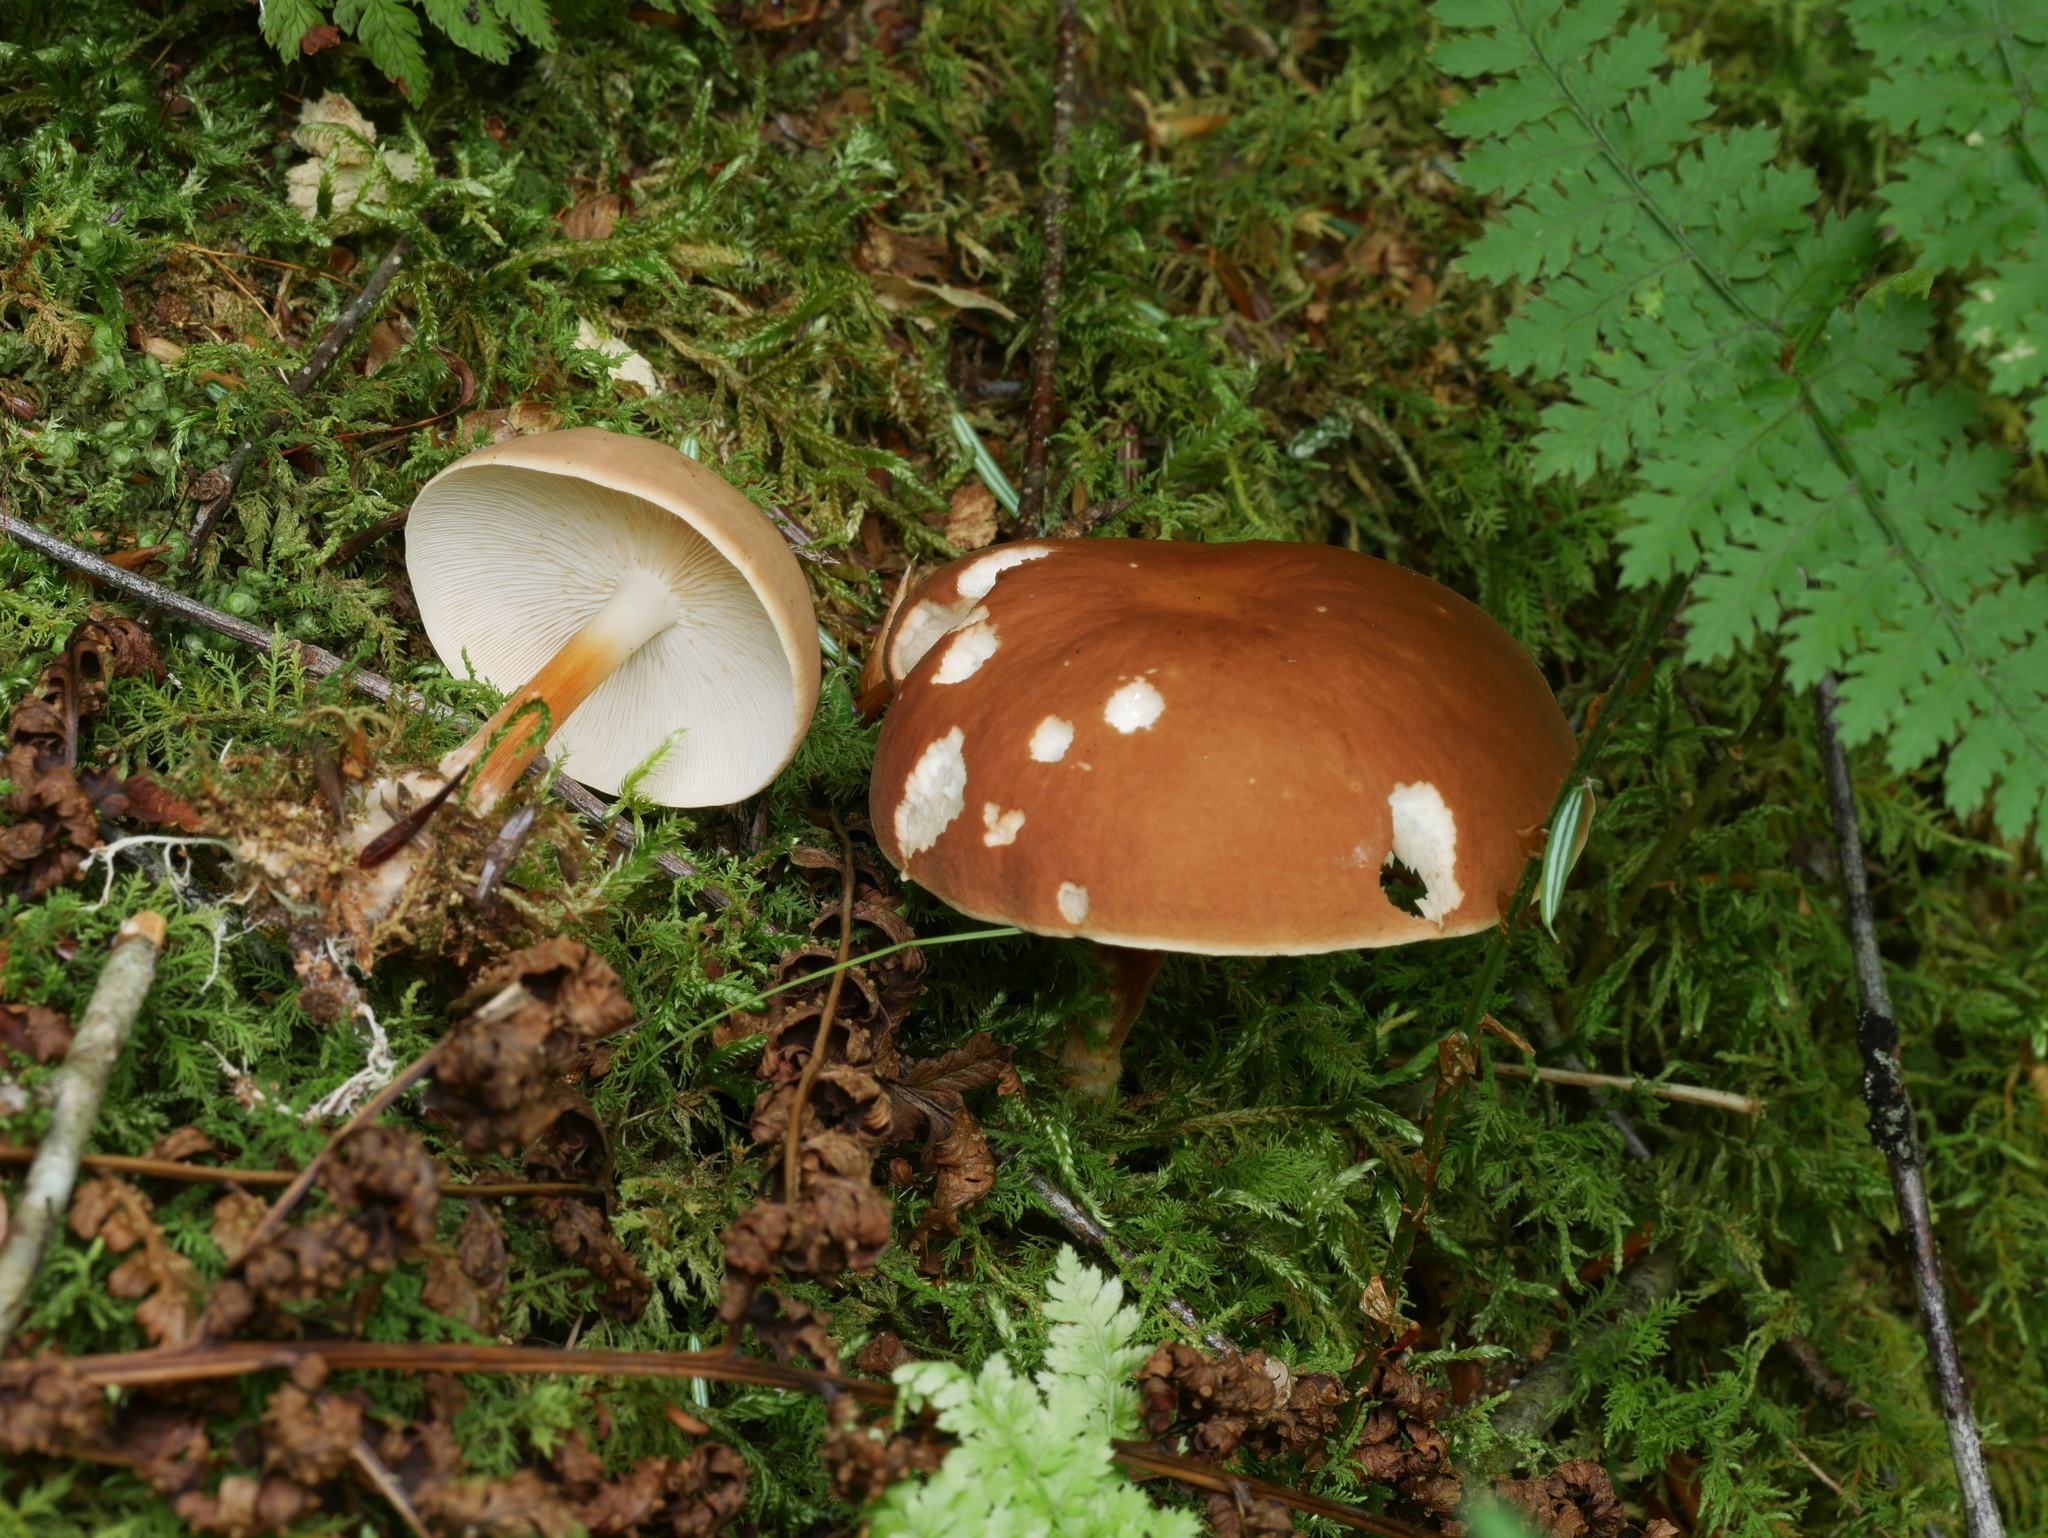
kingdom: Fungi
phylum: Basidiomycota
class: Agaricomycetes
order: Agaricales
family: Omphalotaceae
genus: Gymnopus
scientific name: Gymnopus dryophilus
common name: Penny top
